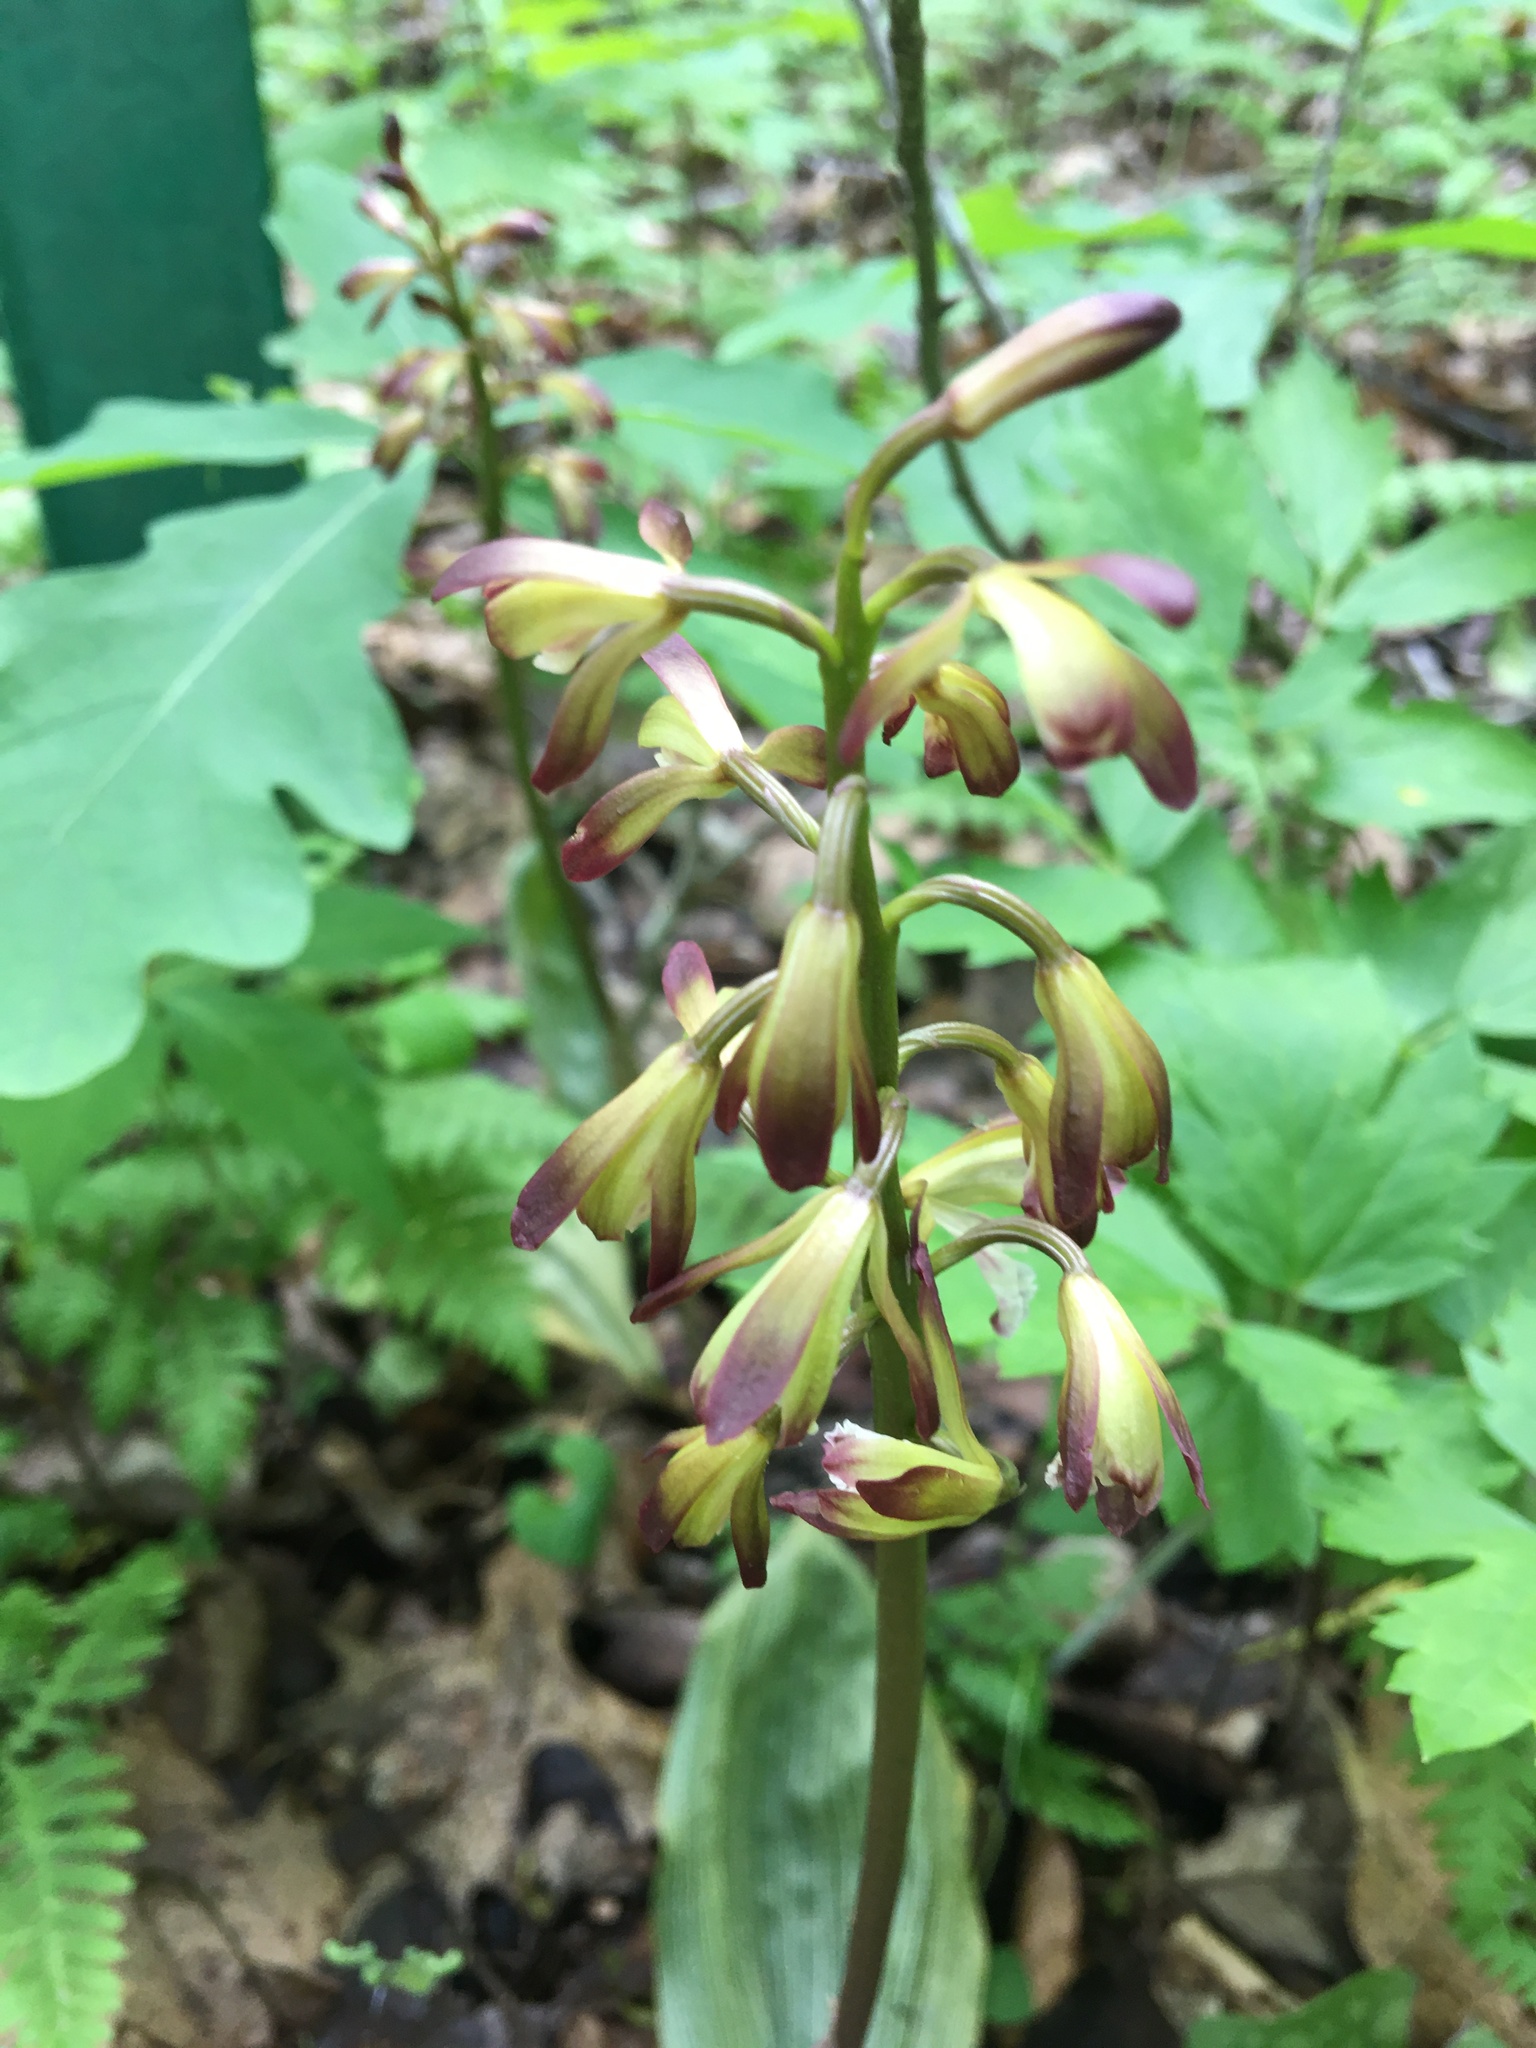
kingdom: Plantae
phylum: Tracheophyta
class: Liliopsida
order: Asparagales
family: Orchidaceae
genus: Aplectrum
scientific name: Aplectrum hyemale
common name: Adam-and-eve
